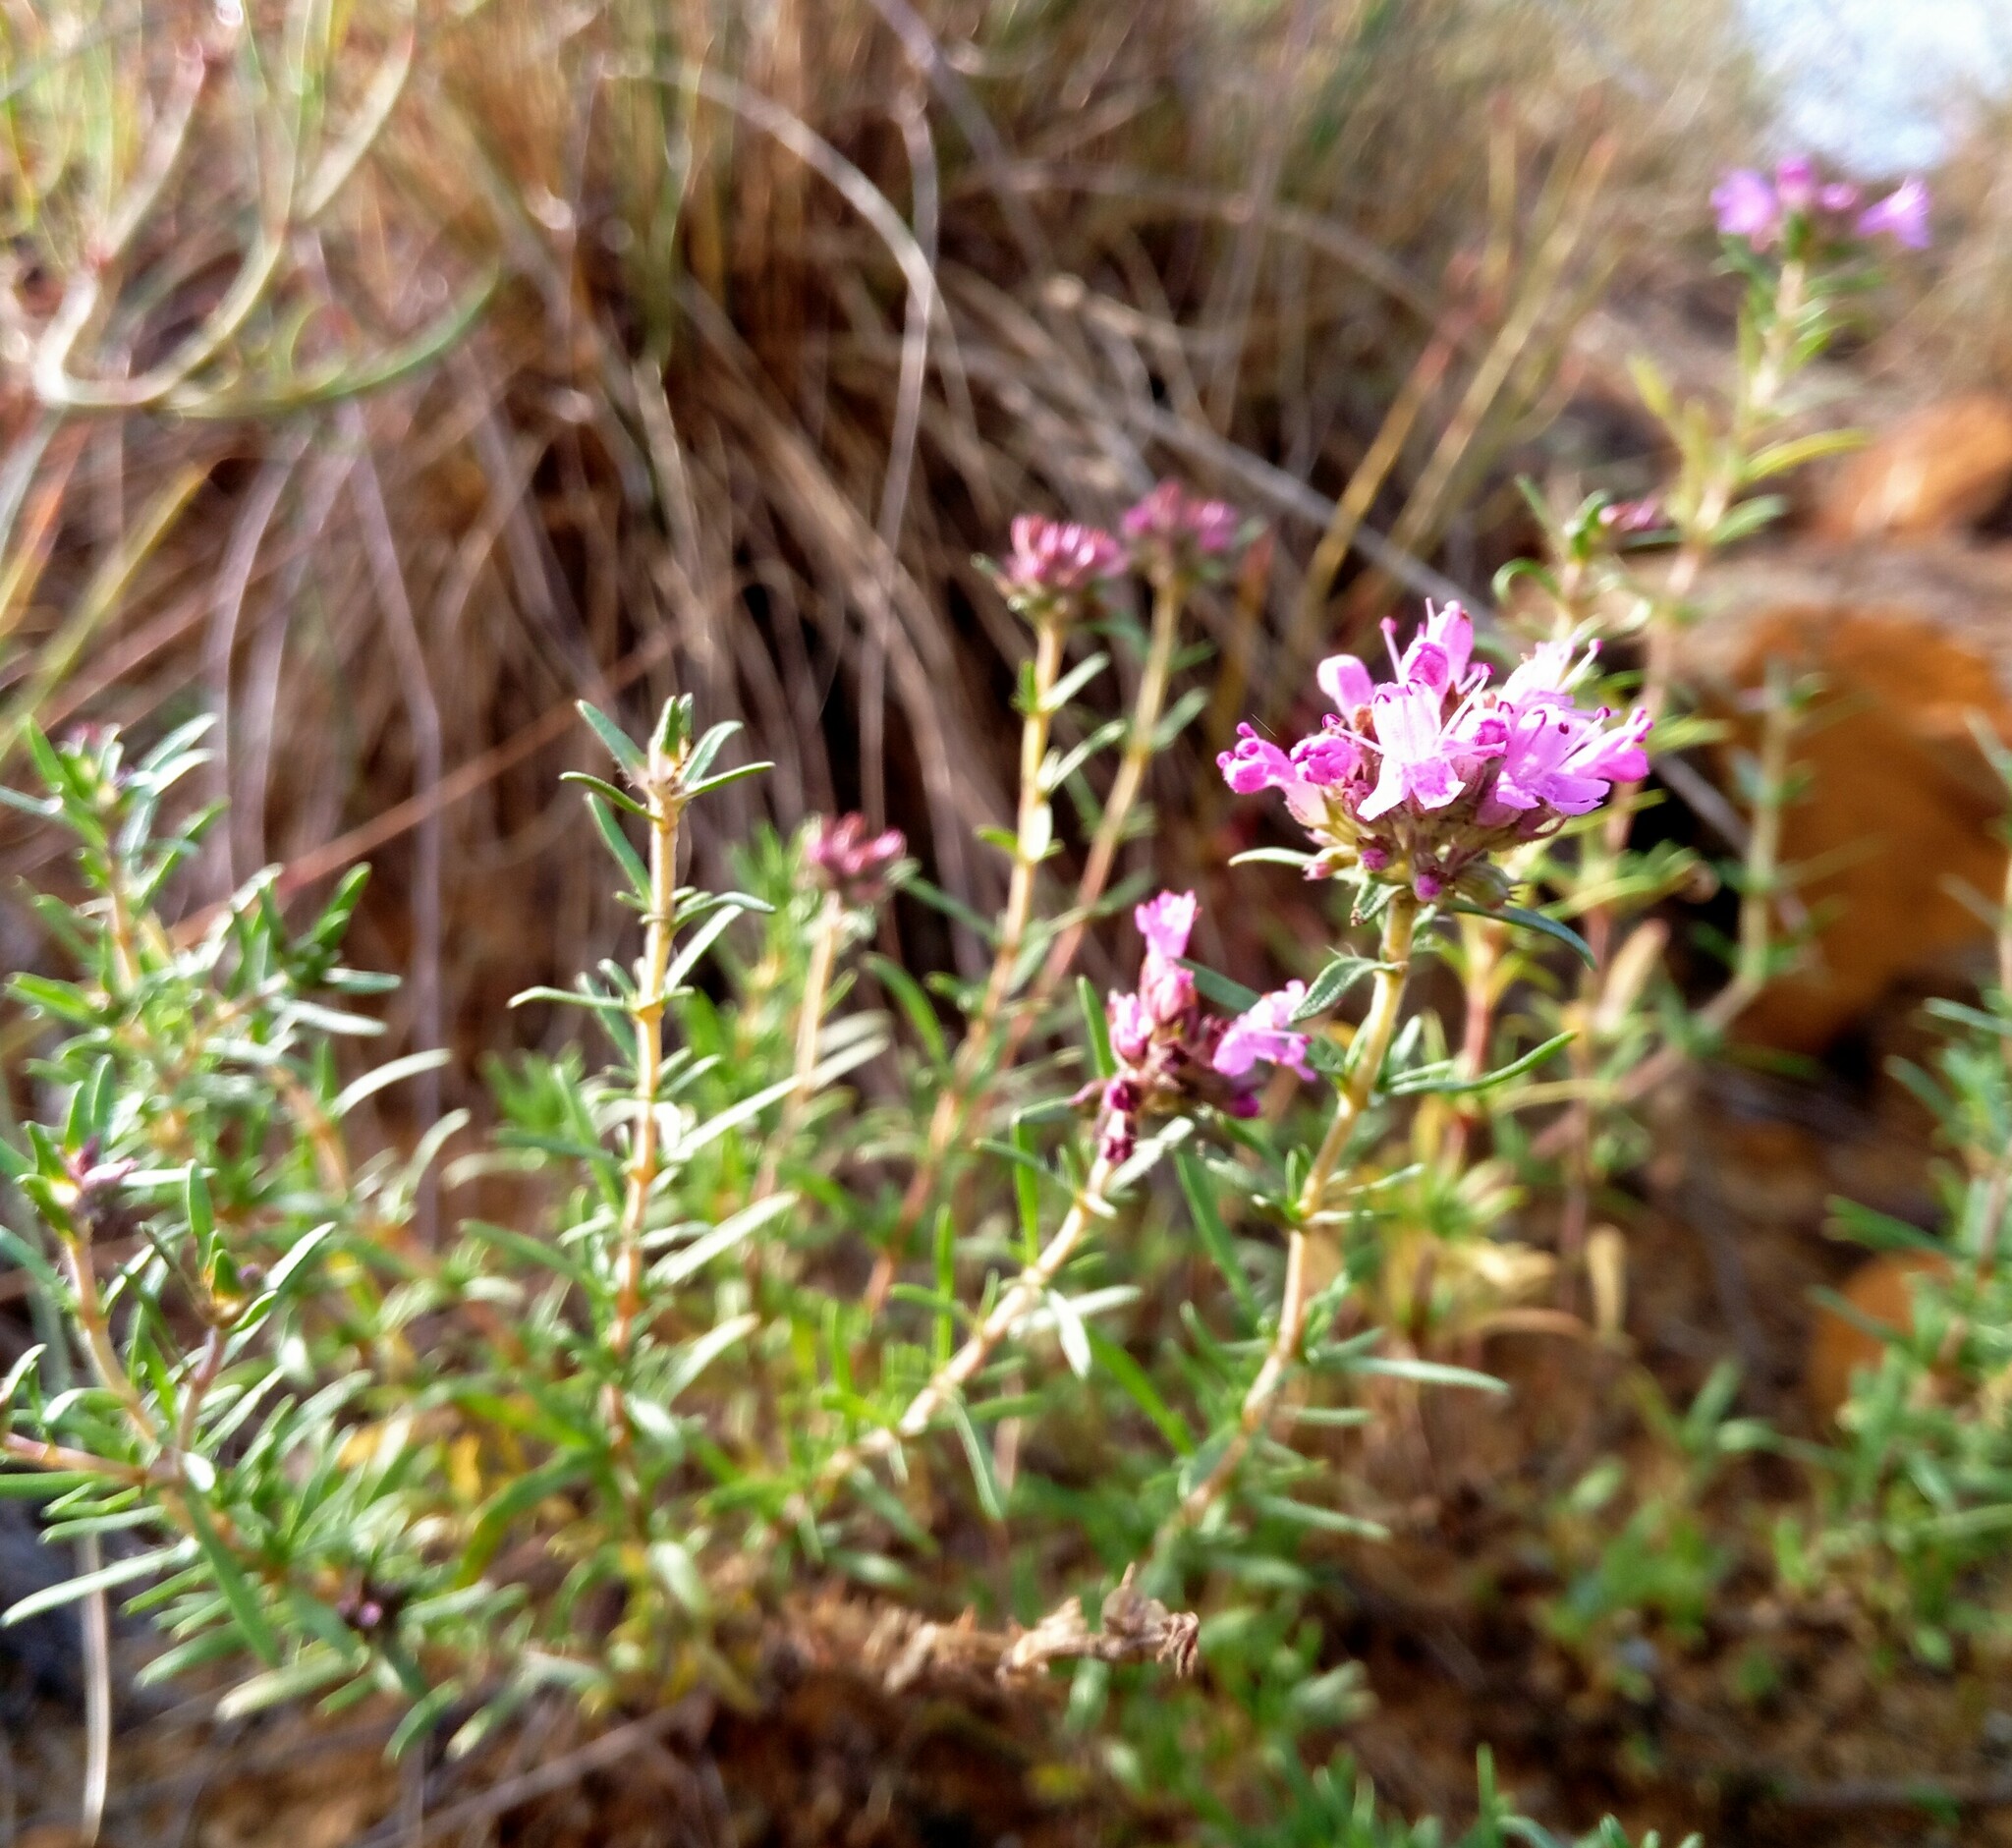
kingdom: Plantae
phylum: Tracheophyta
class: Magnoliopsida
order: Lamiales
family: Lamiaceae
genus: Thymus
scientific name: Thymus pallasianus
